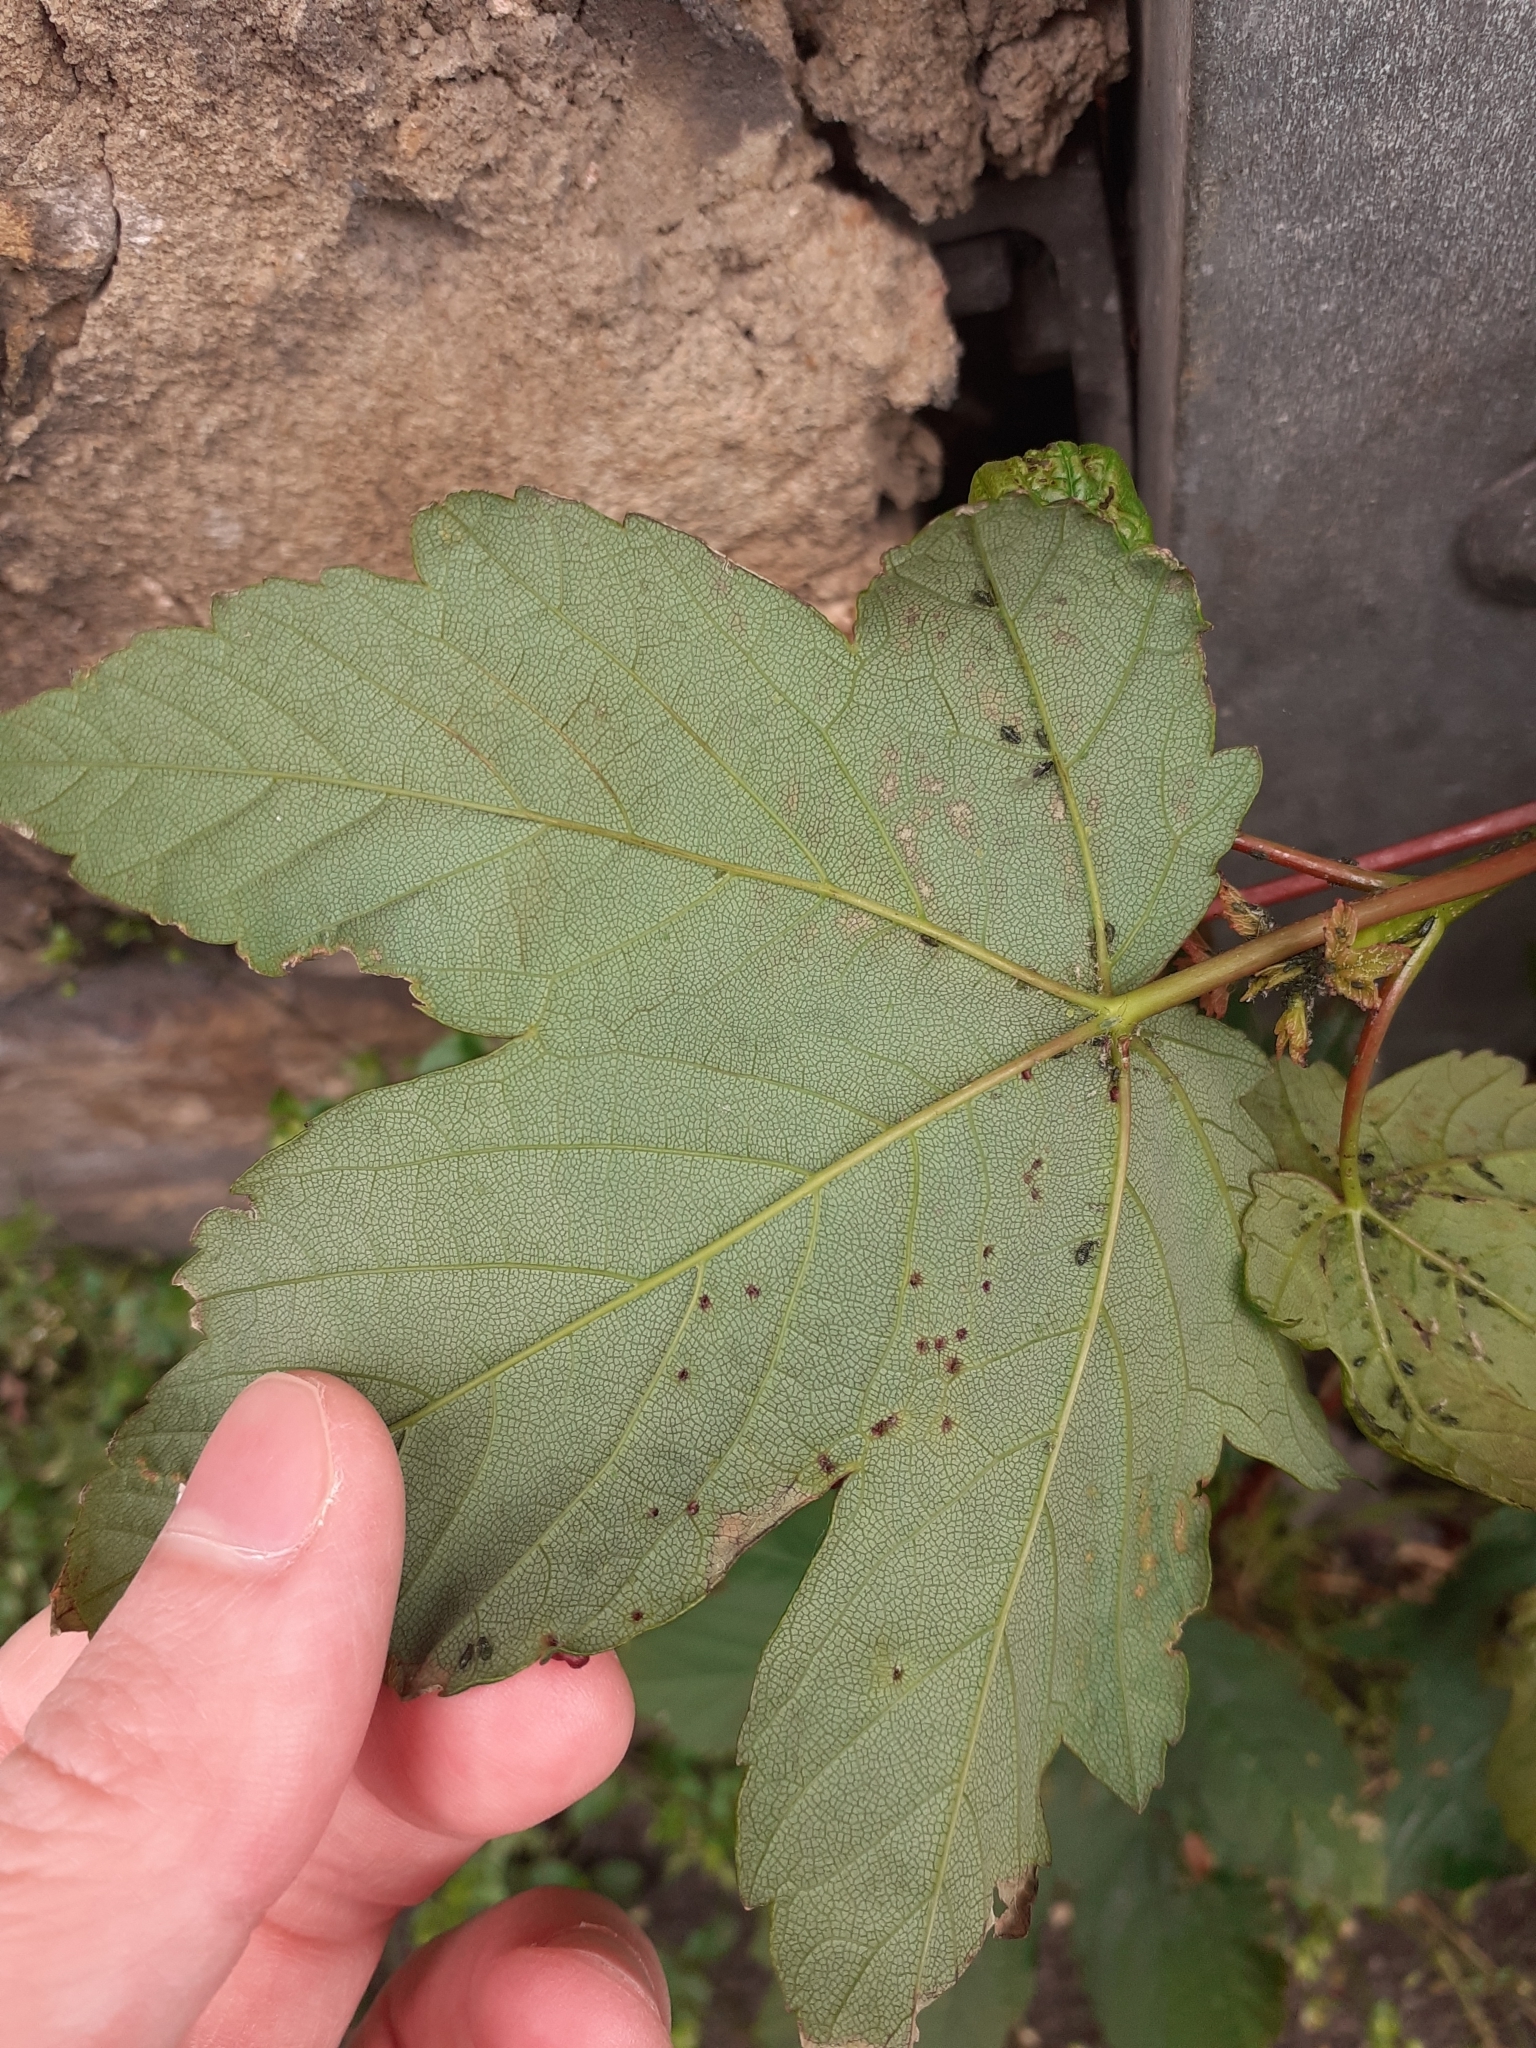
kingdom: Animalia
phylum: Arthropoda
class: Arachnida
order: Trombidiformes
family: Eriophyidae
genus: Aceria
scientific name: Aceria cephaloneus
